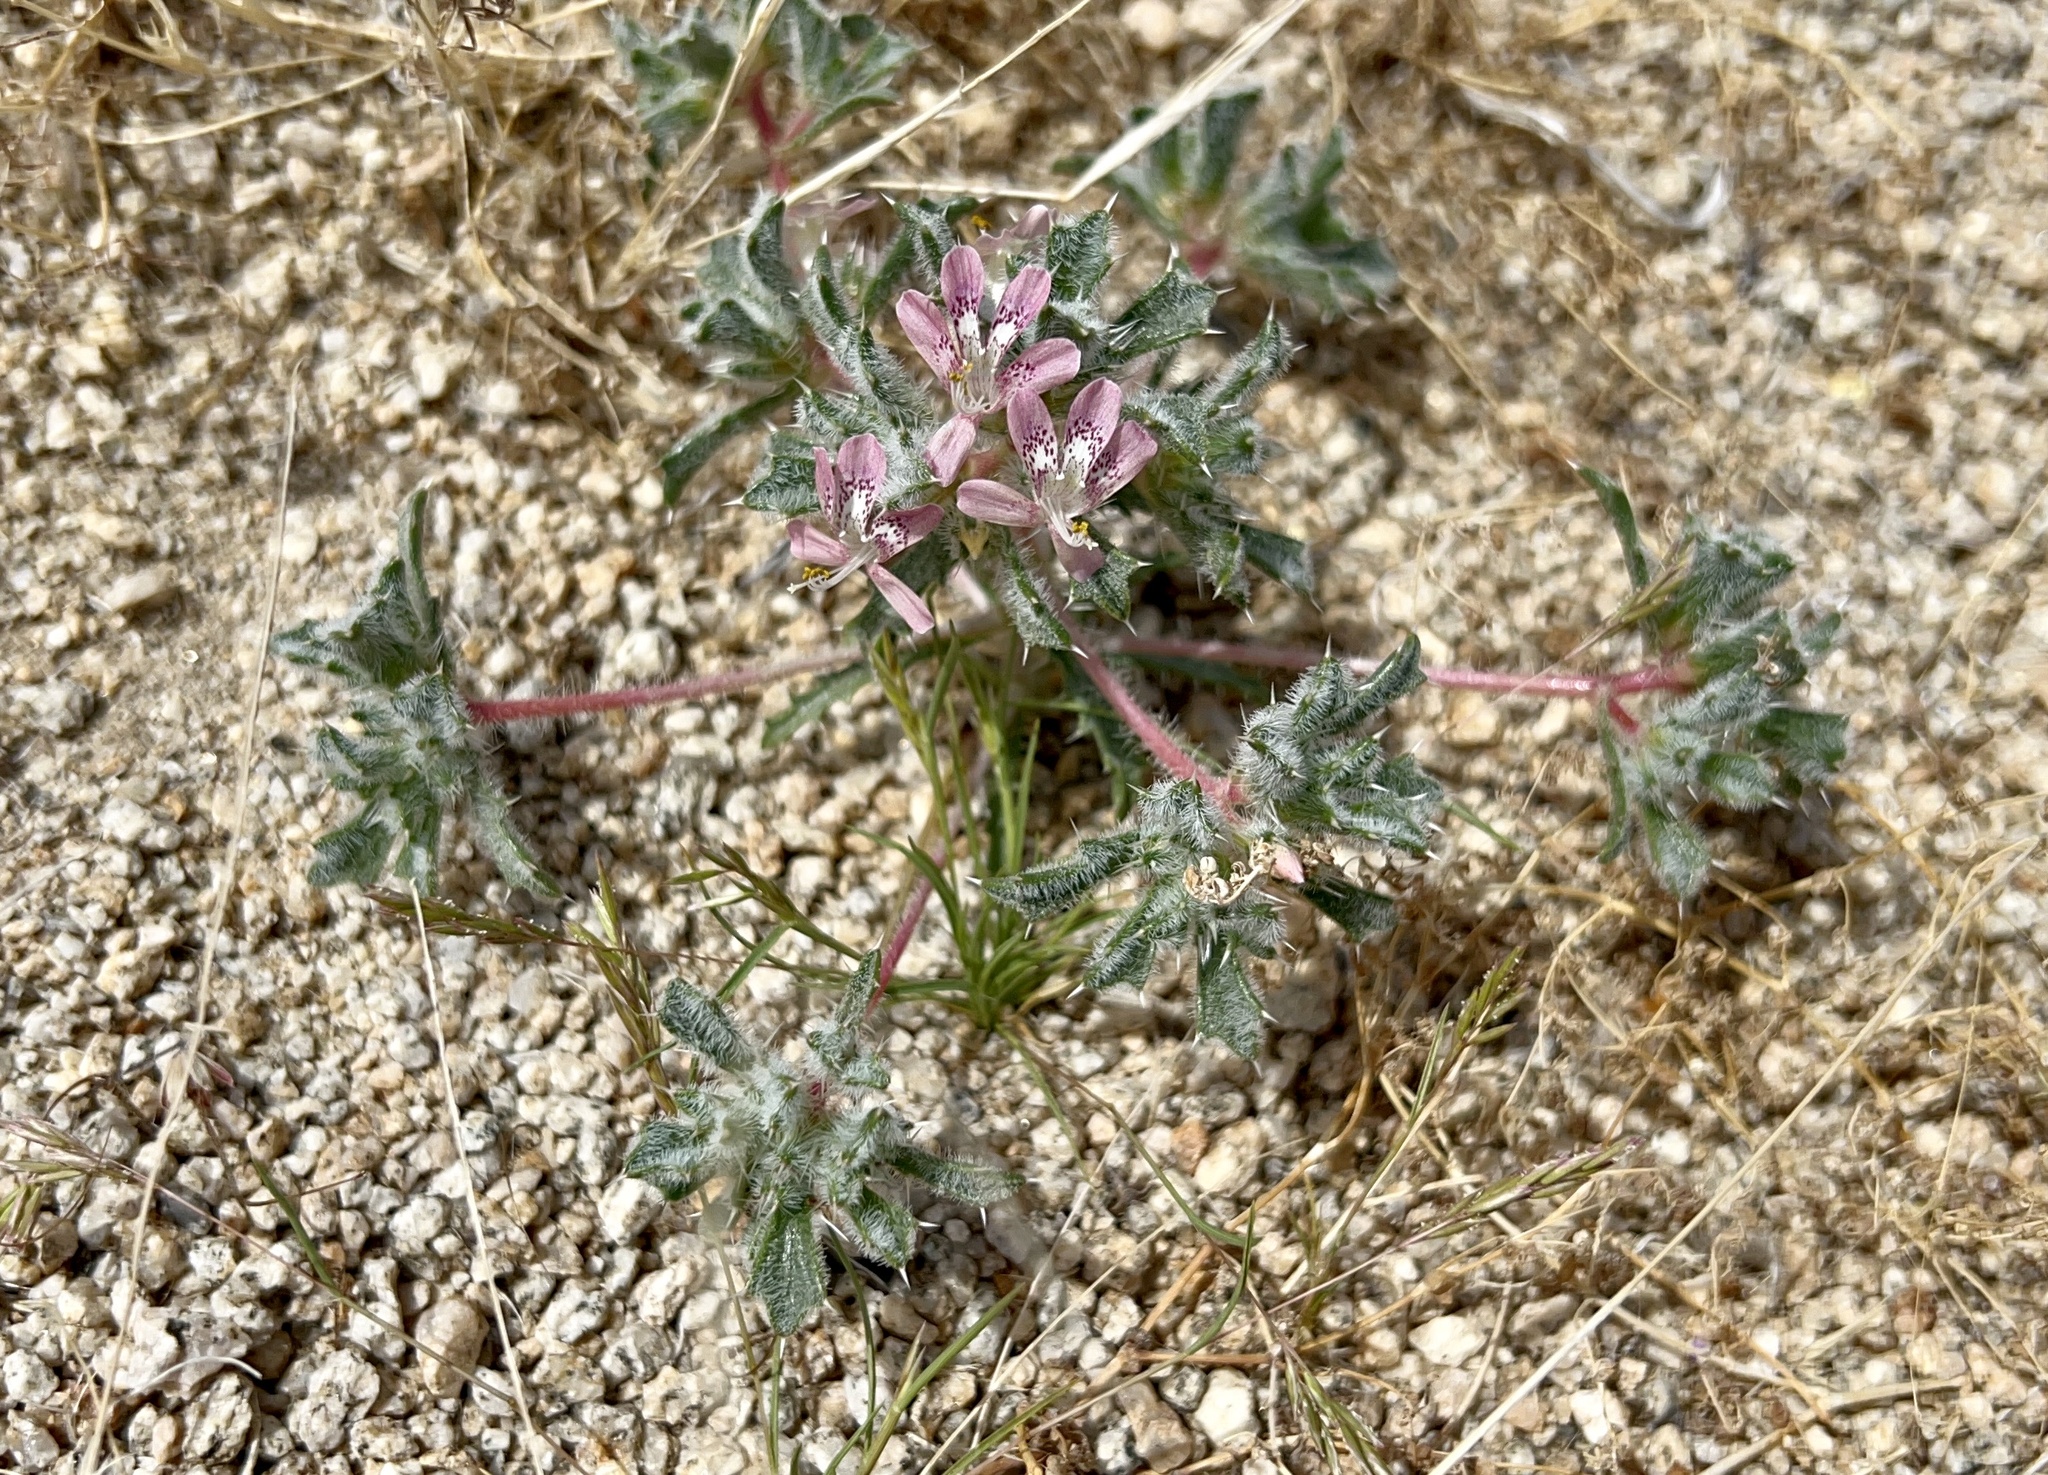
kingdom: Plantae
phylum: Tracheophyta
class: Magnoliopsida
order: Ericales
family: Polemoniaceae
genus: Loeseliastrum
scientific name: Loeseliastrum matthewsii
